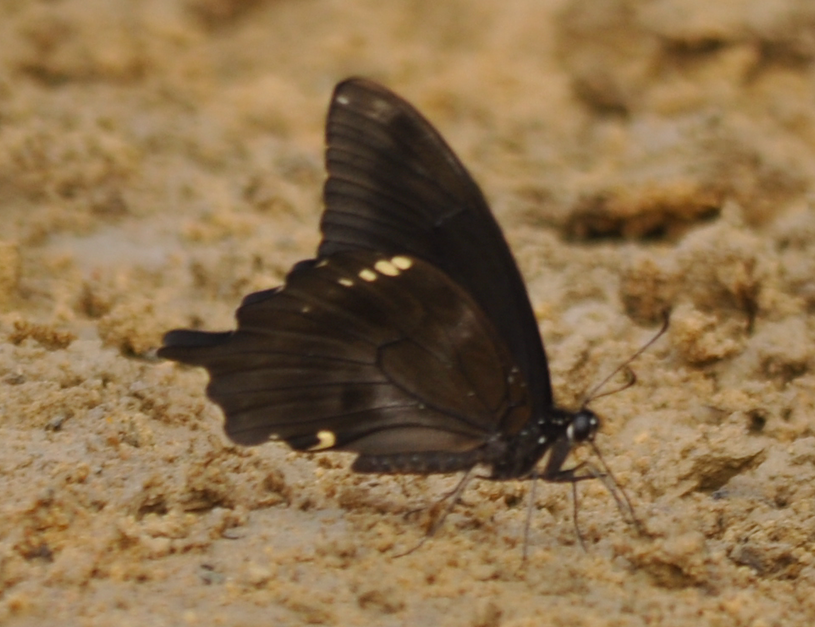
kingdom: Animalia
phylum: Arthropoda
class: Insecta
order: Lepidoptera
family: Papilionidae
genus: Papilio
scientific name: Papilio epiphorbas
